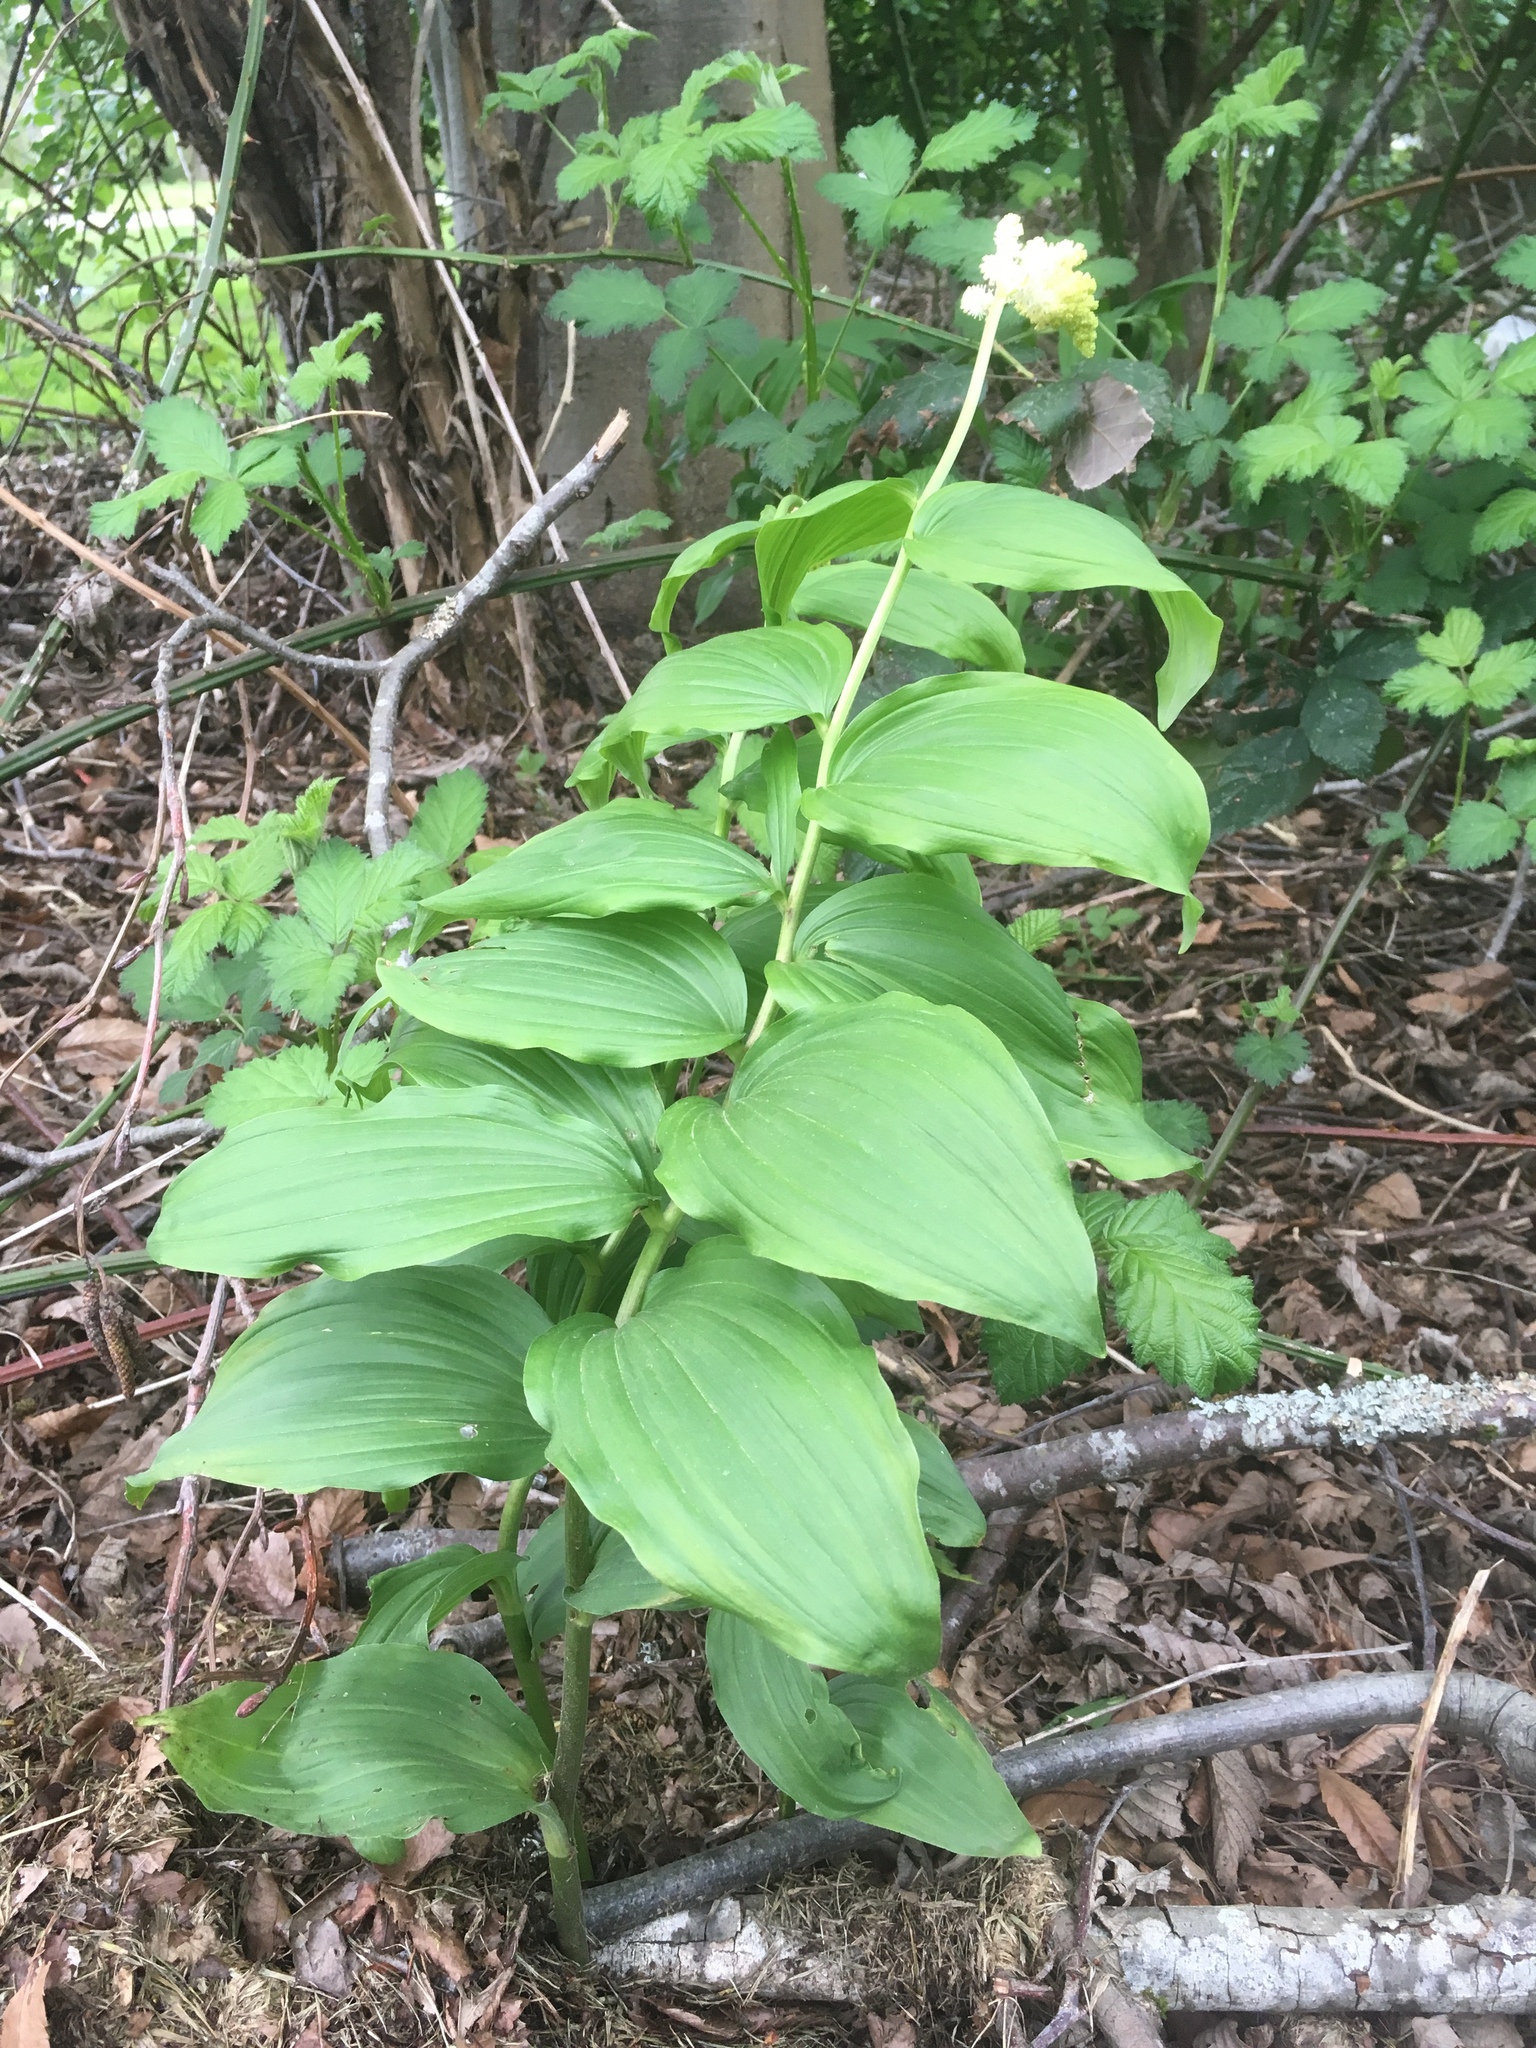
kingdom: Plantae
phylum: Tracheophyta
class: Liliopsida
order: Asparagales
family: Asparagaceae
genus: Maianthemum
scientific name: Maianthemum racemosum
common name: False spikenard
